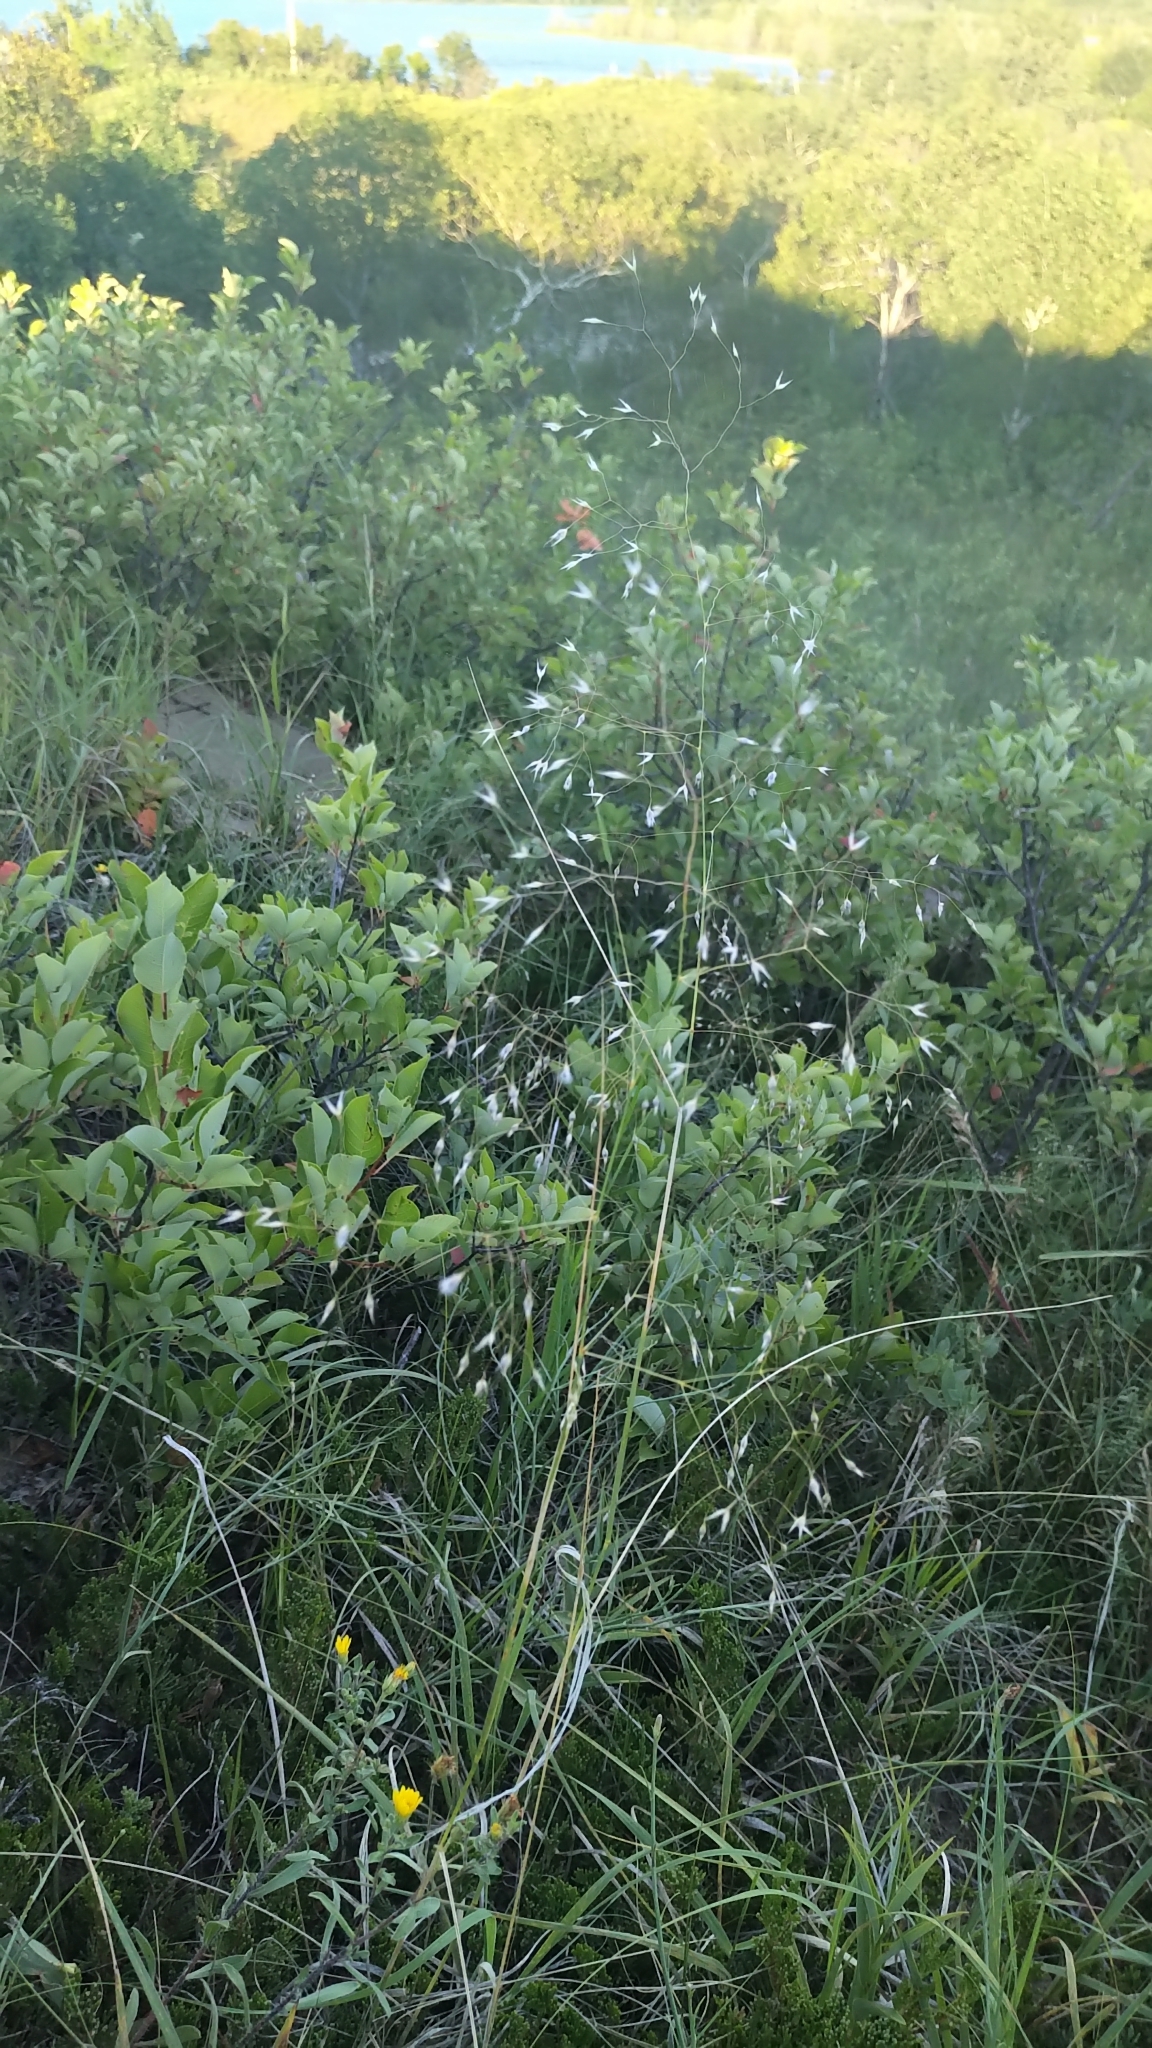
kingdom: Plantae
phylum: Tracheophyta
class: Liliopsida
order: Poales
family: Poaceae
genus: Eriocoma
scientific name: Eriocoma hymenoides
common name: Indian mountain ricegrass
